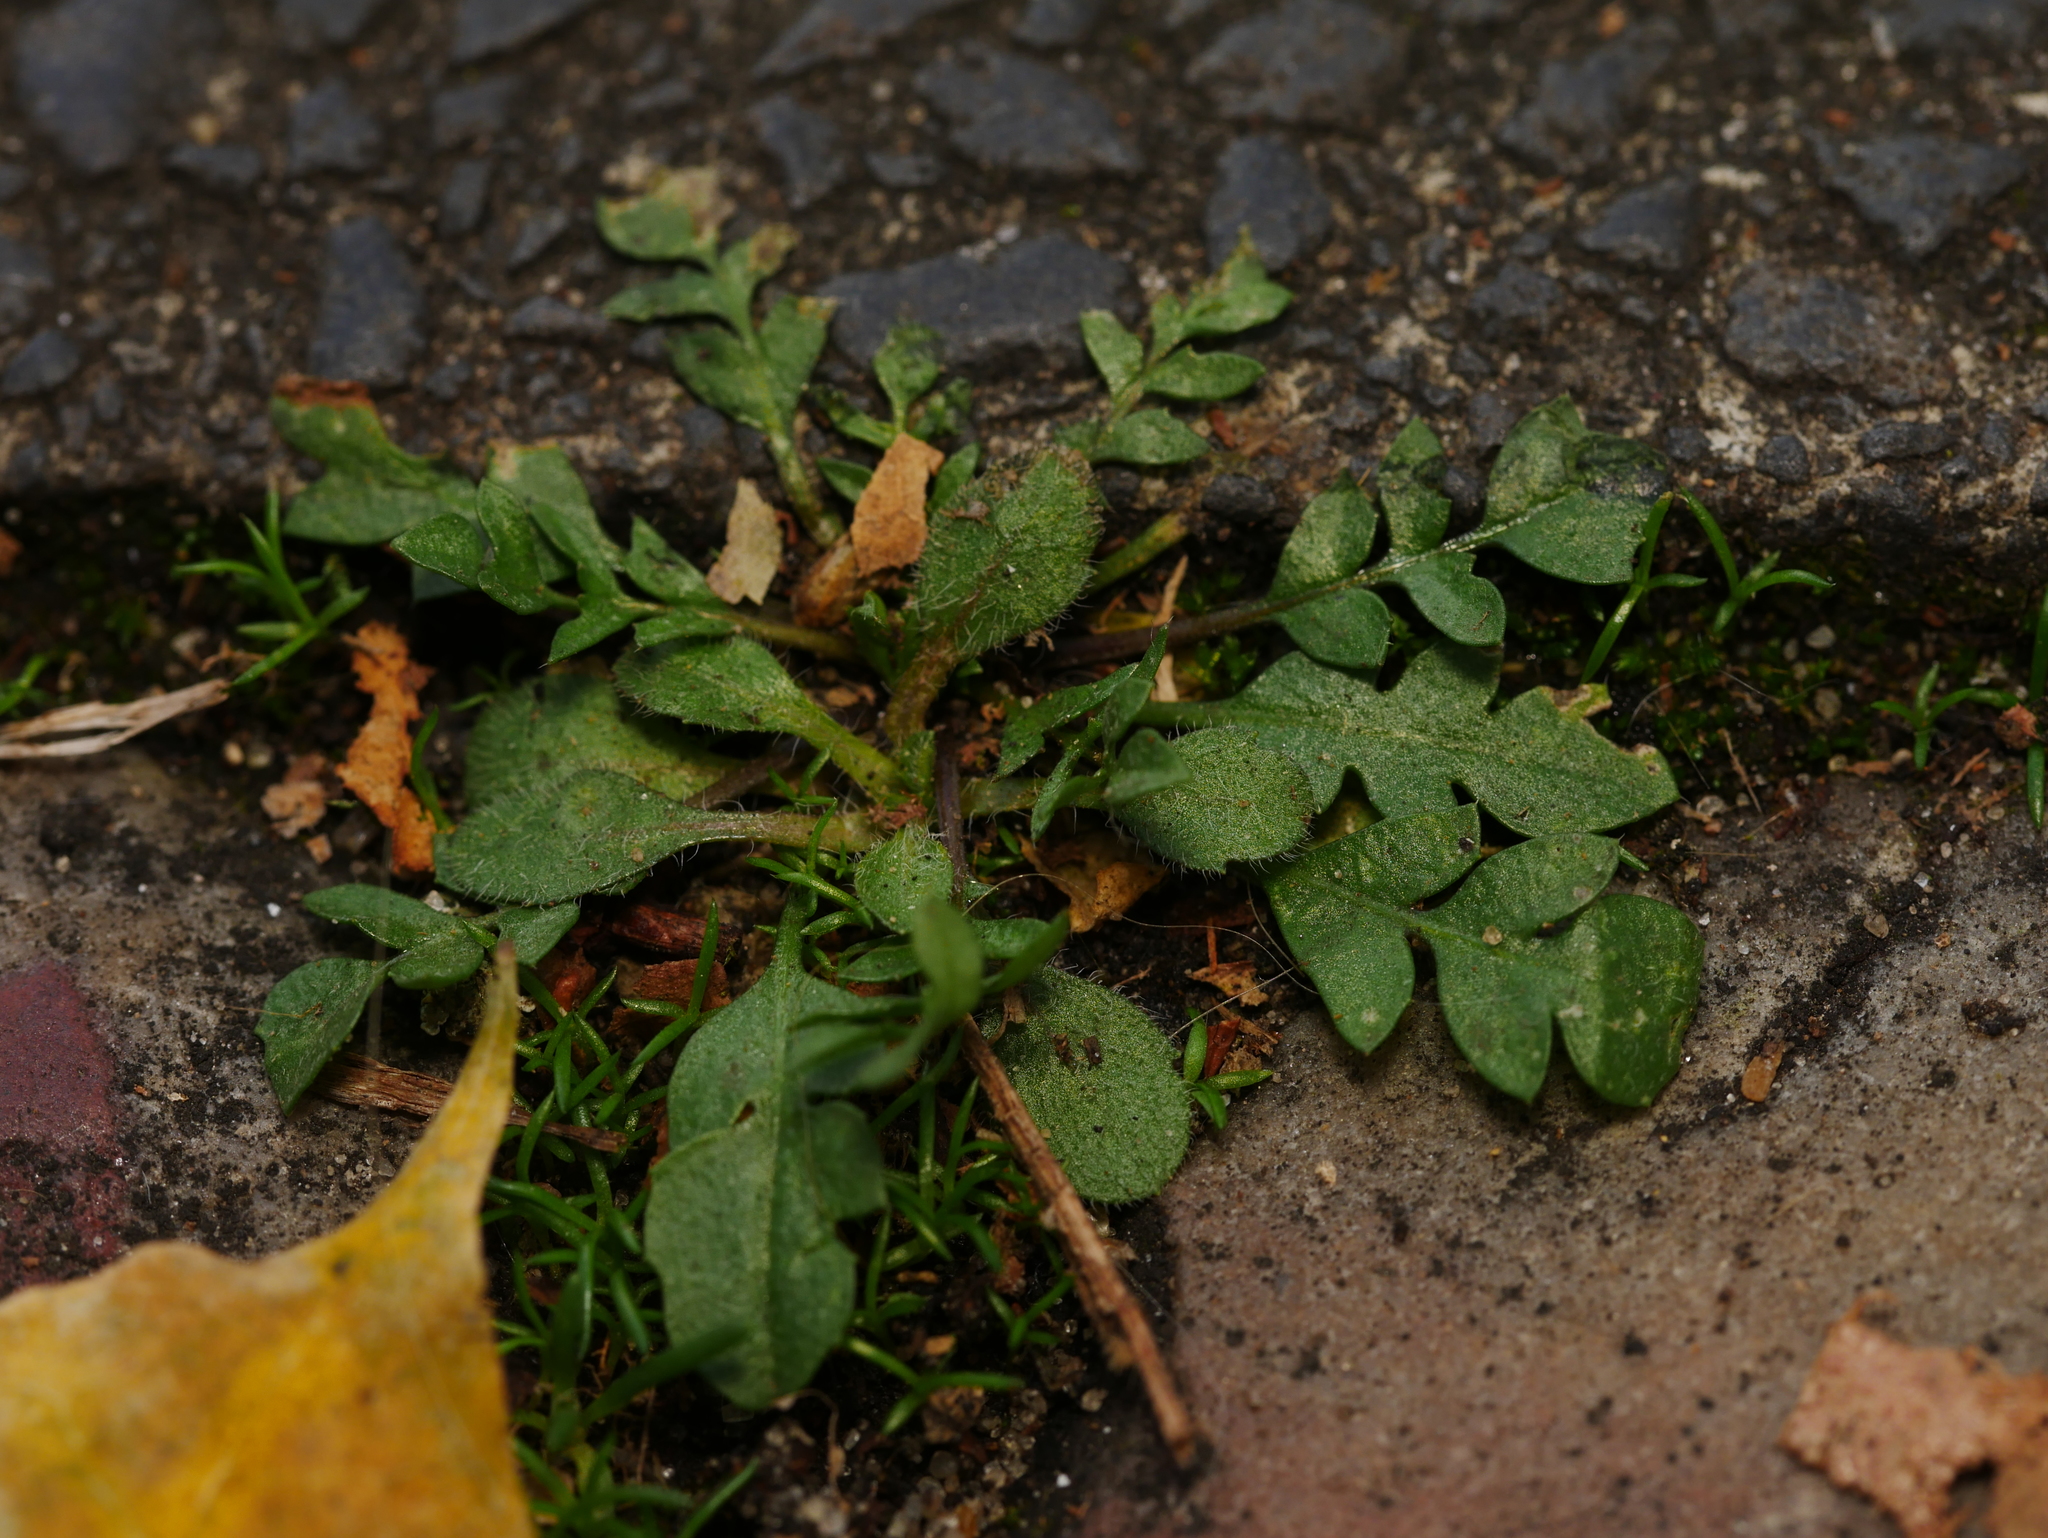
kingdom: Plantae
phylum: Tracheophyta
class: Magnoliopsida
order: Brassicales
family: Brassicaceae
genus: Capsella
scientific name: Capsella bursa-pastoris
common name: Shepherd's purse
